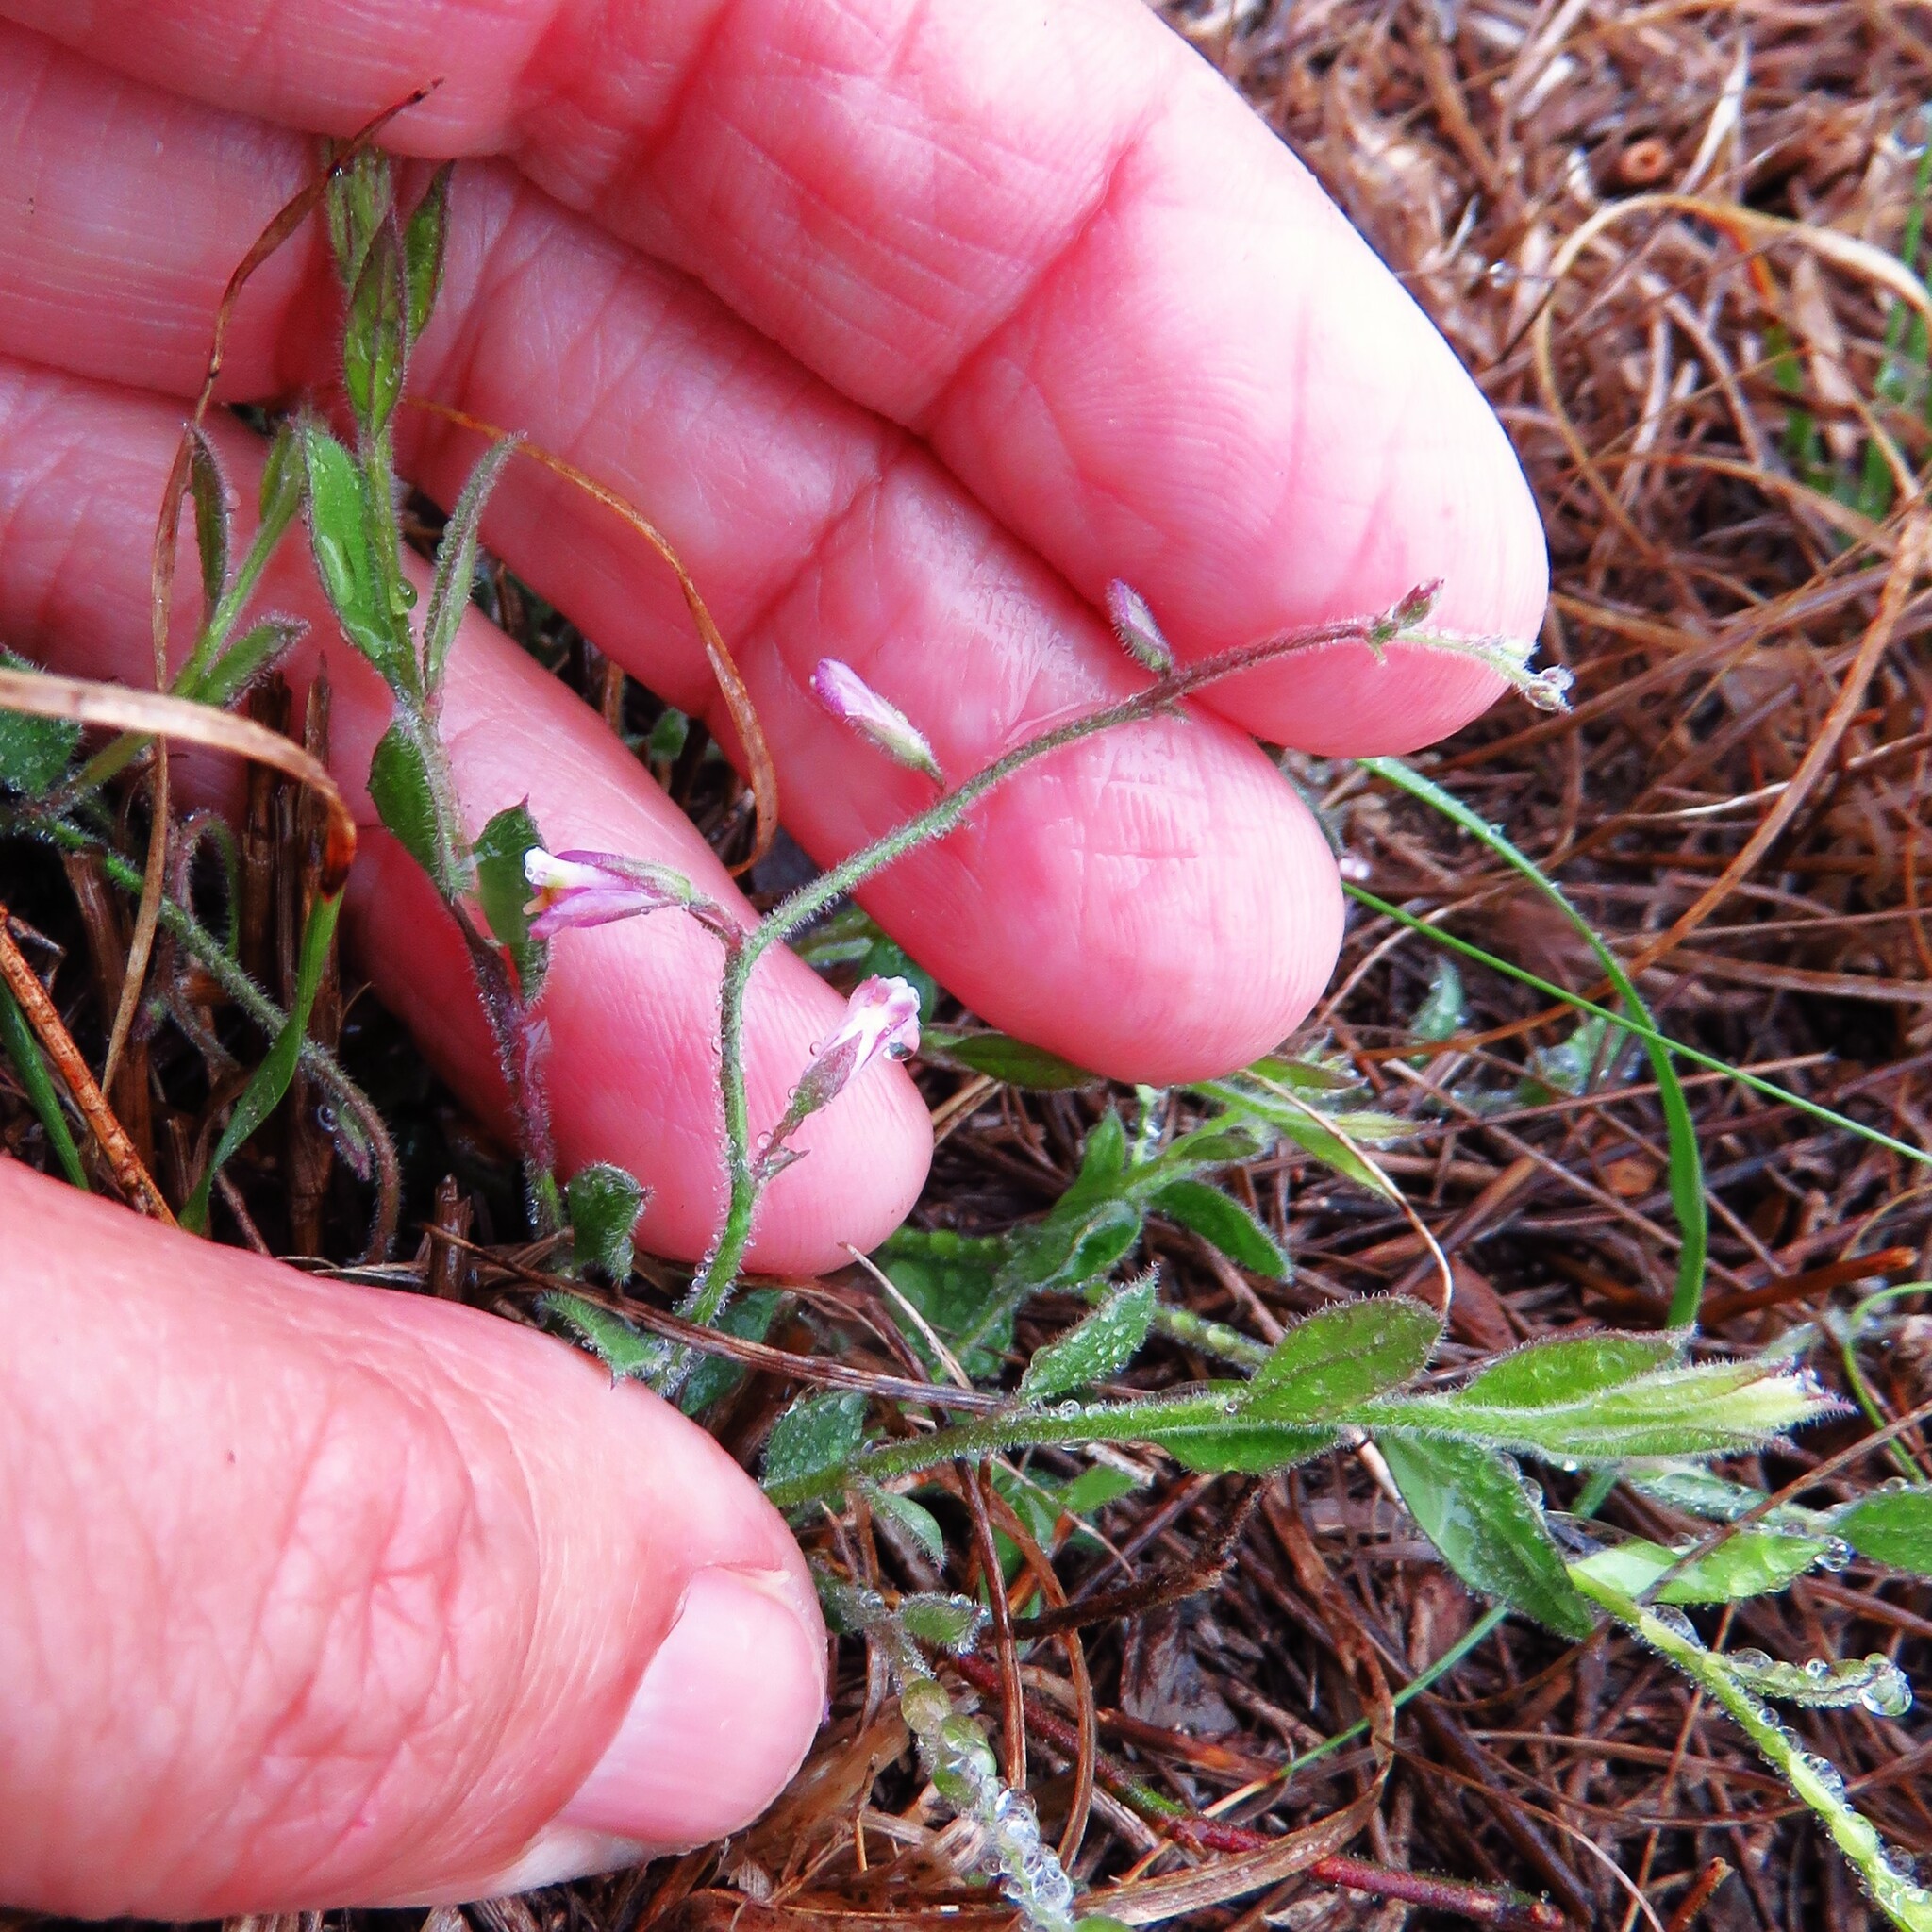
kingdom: Plantae
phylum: Tracheophyta
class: Magnoliopsida
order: Fabales
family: Polygalaceae
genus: Rhinotropis
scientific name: Rhinotropis lindheimeri
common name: Shrubby milkwort
